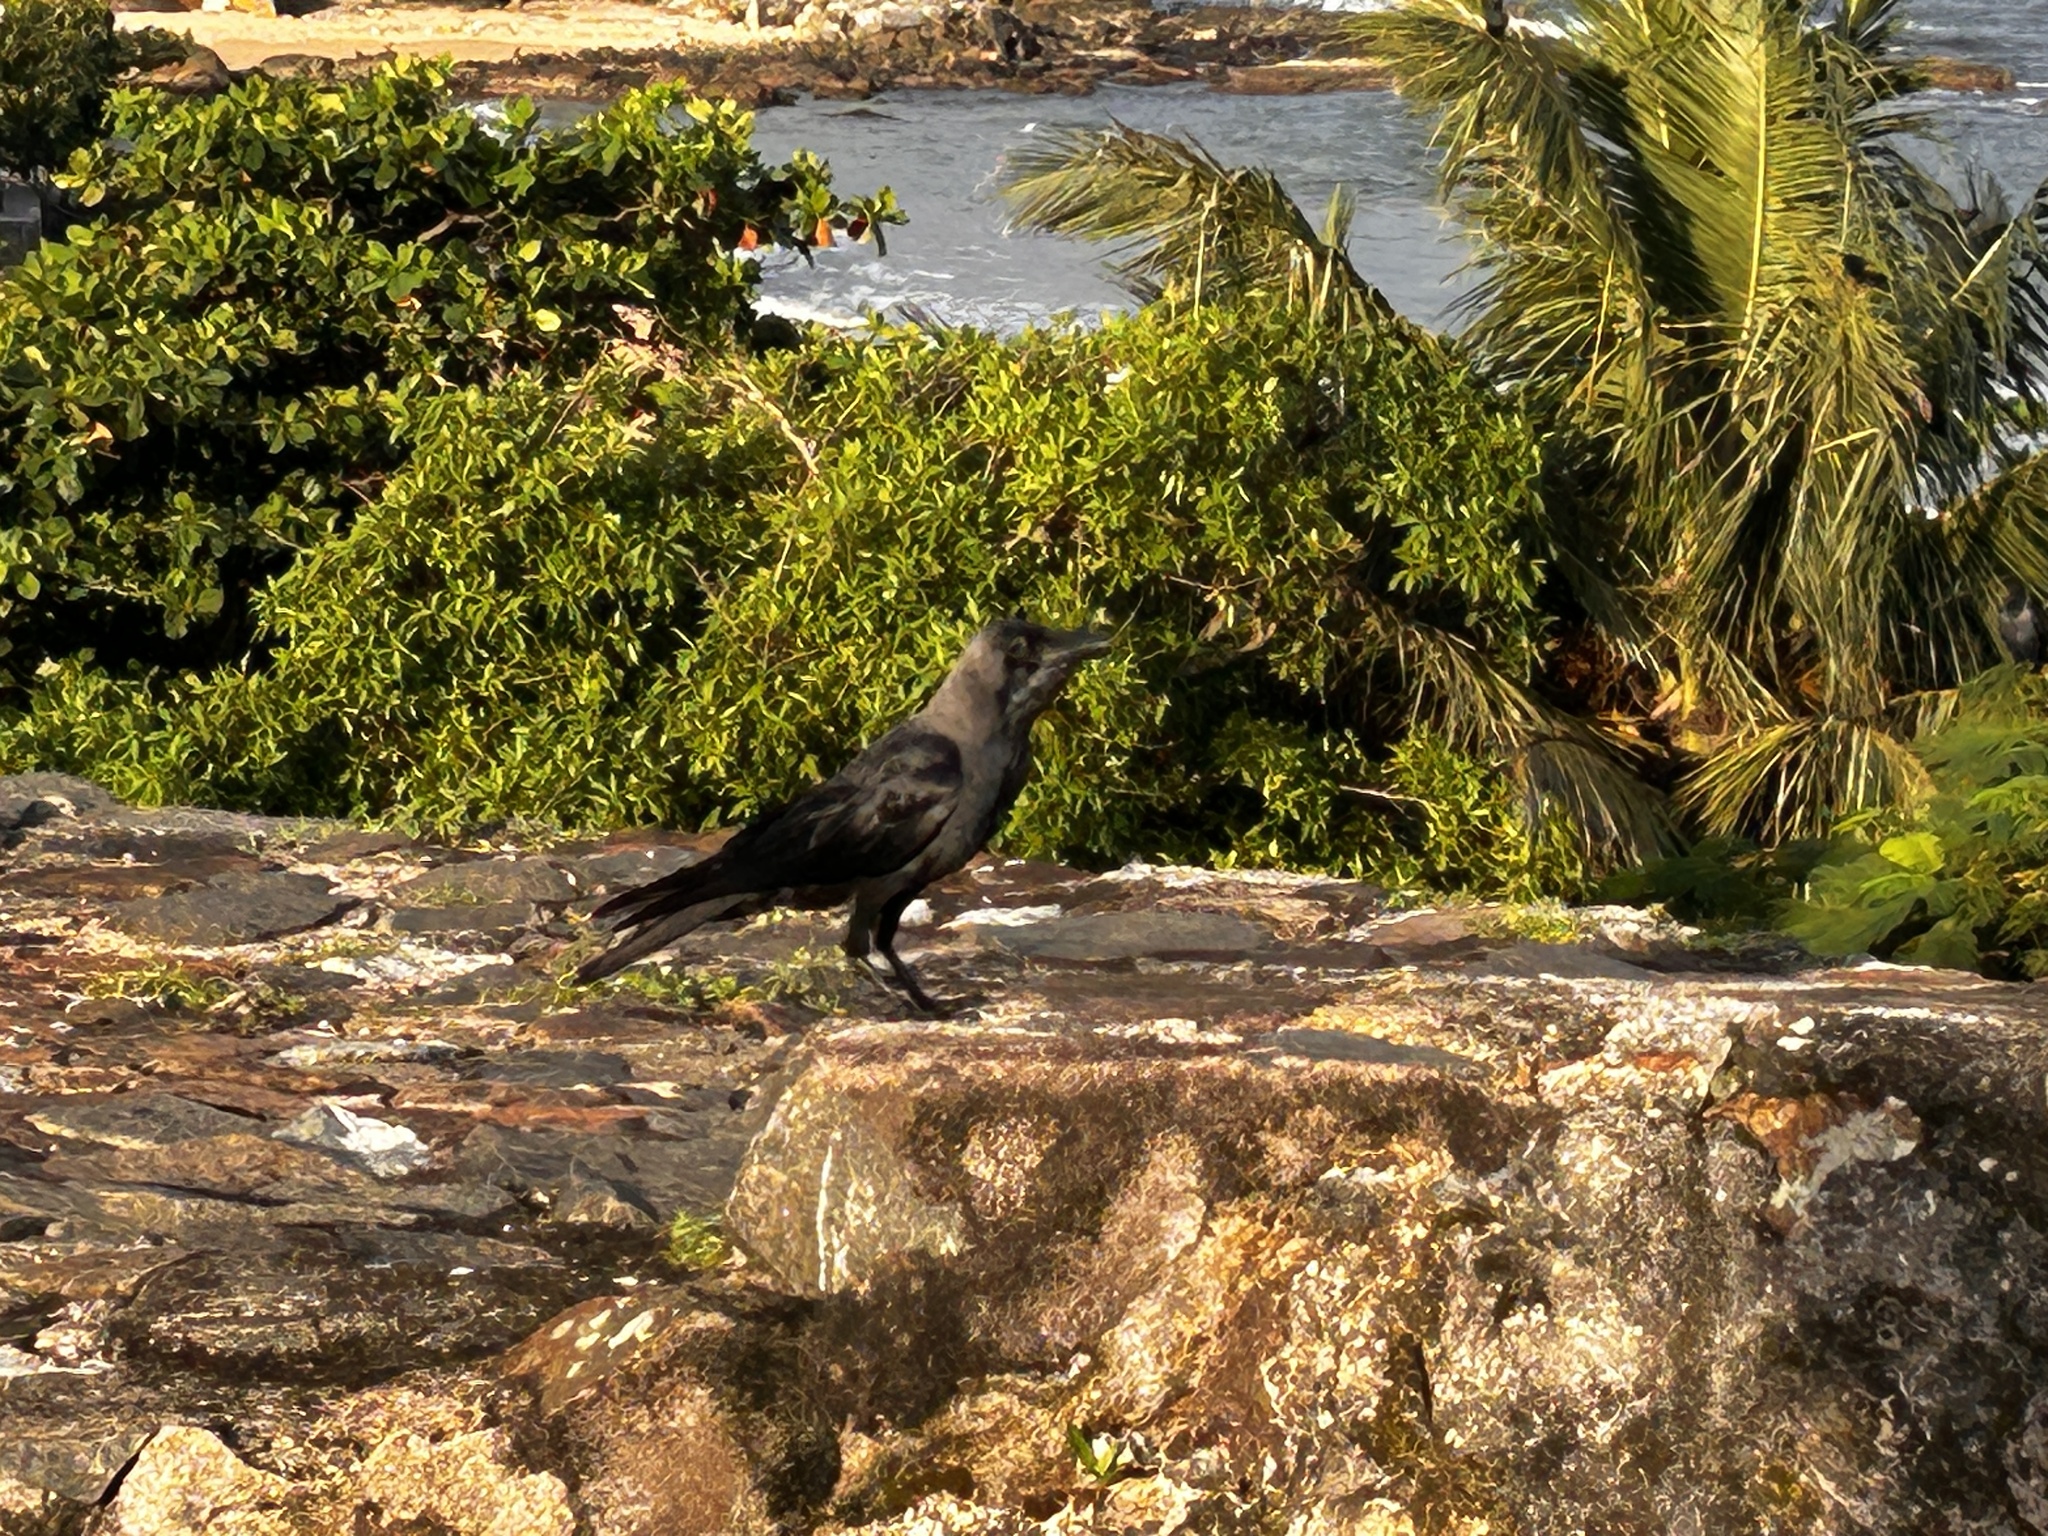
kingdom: Animalia
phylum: Chordata
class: Aves
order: Passeriformes
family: Corvidae
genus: Corvus
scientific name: Corvus splendens
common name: House crow
